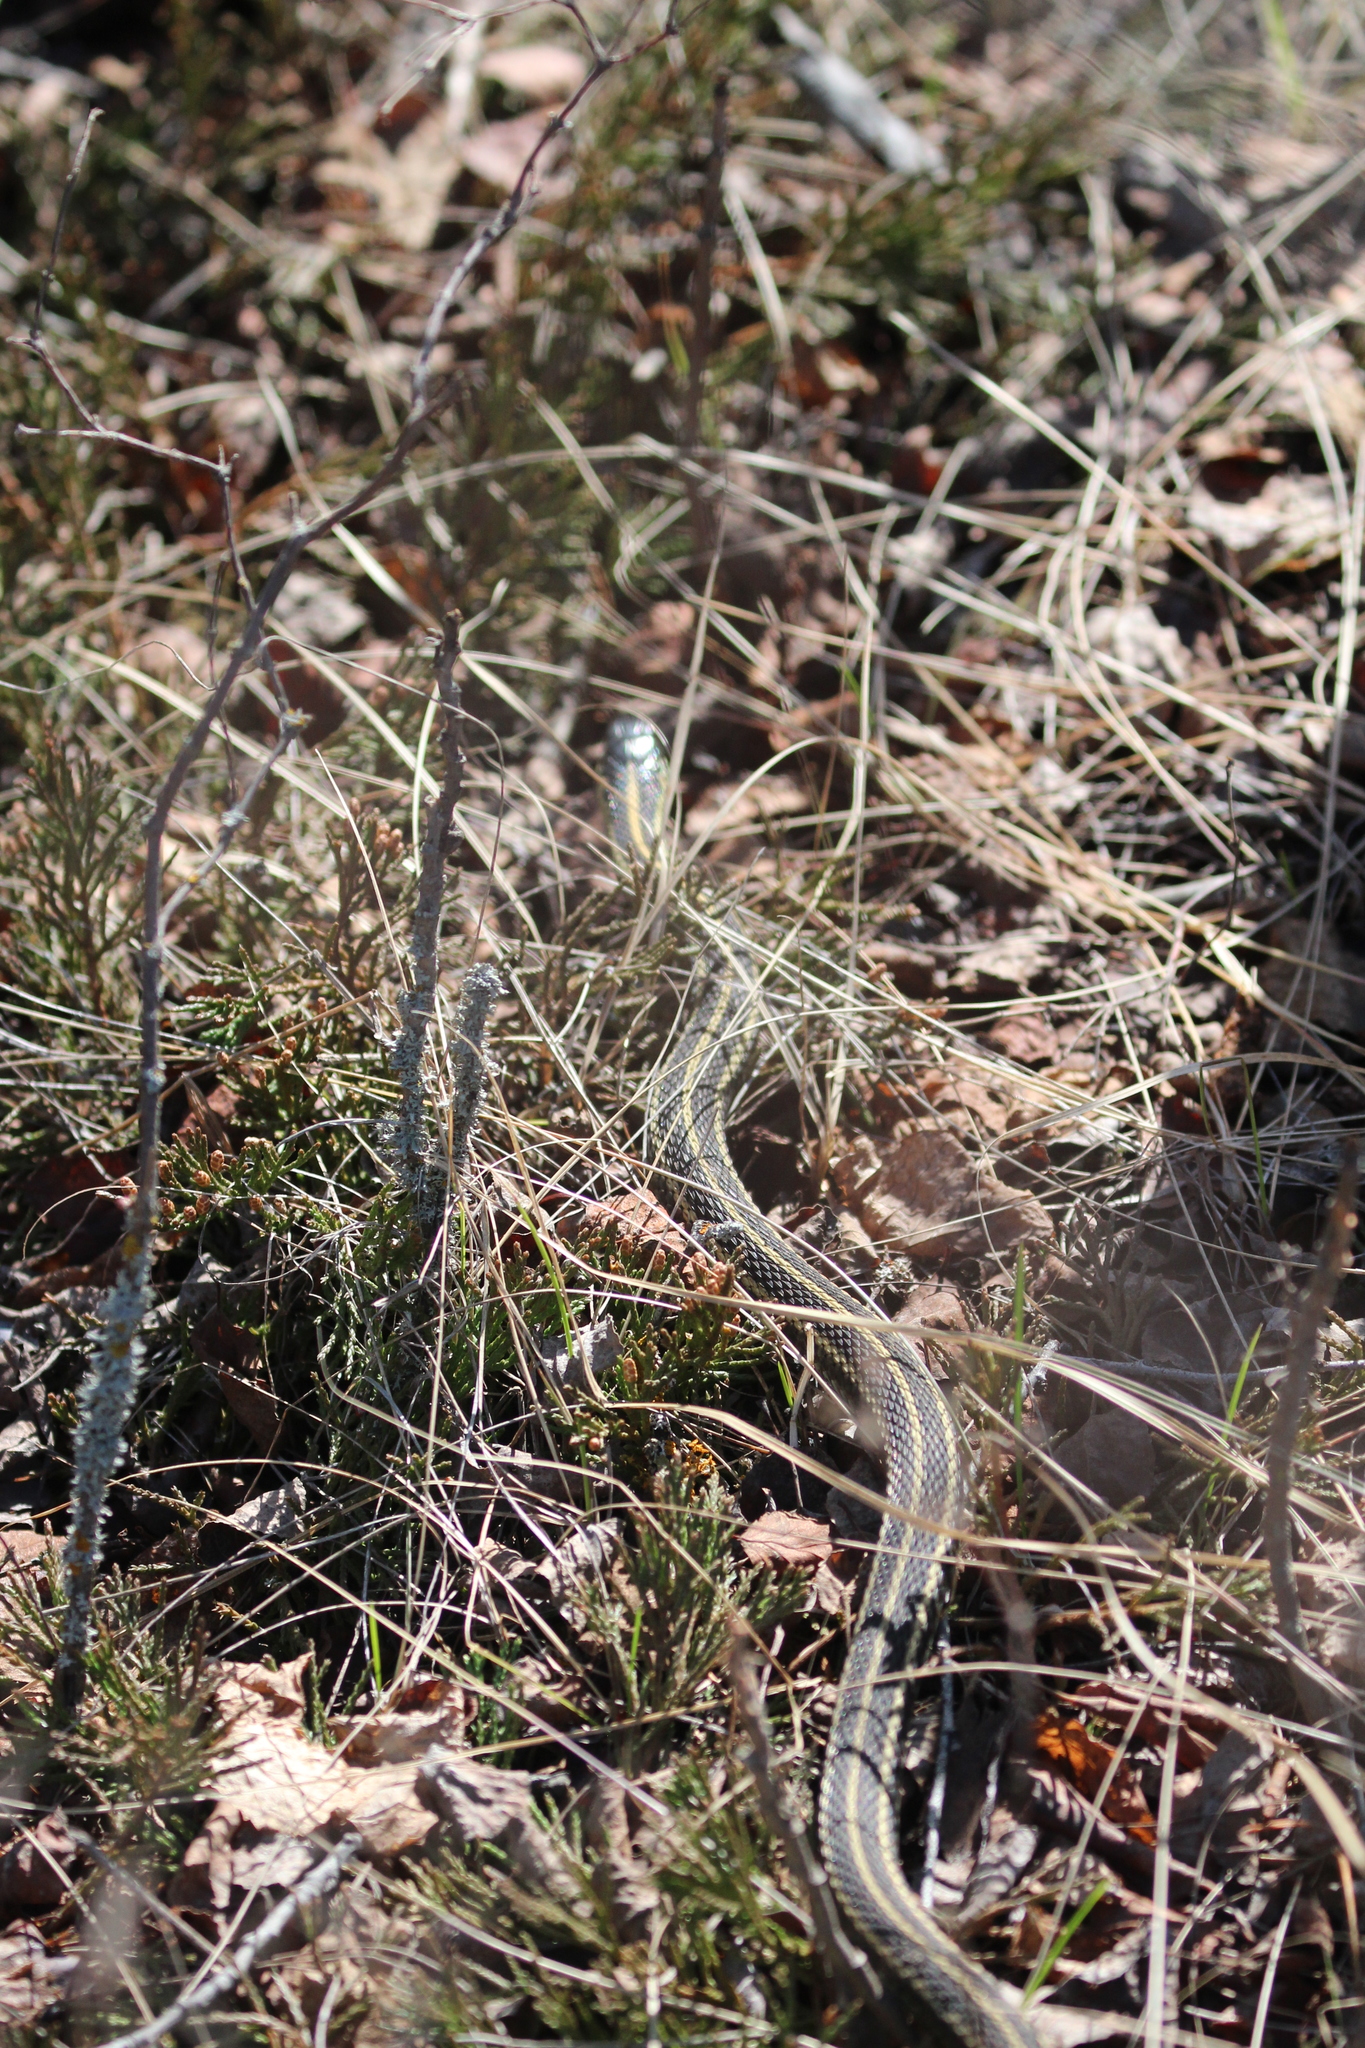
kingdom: Animalia
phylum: Chordata
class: Squamata
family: Colubridae
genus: Thamnophis
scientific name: Thamnophis radix
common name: Plains garter snake
